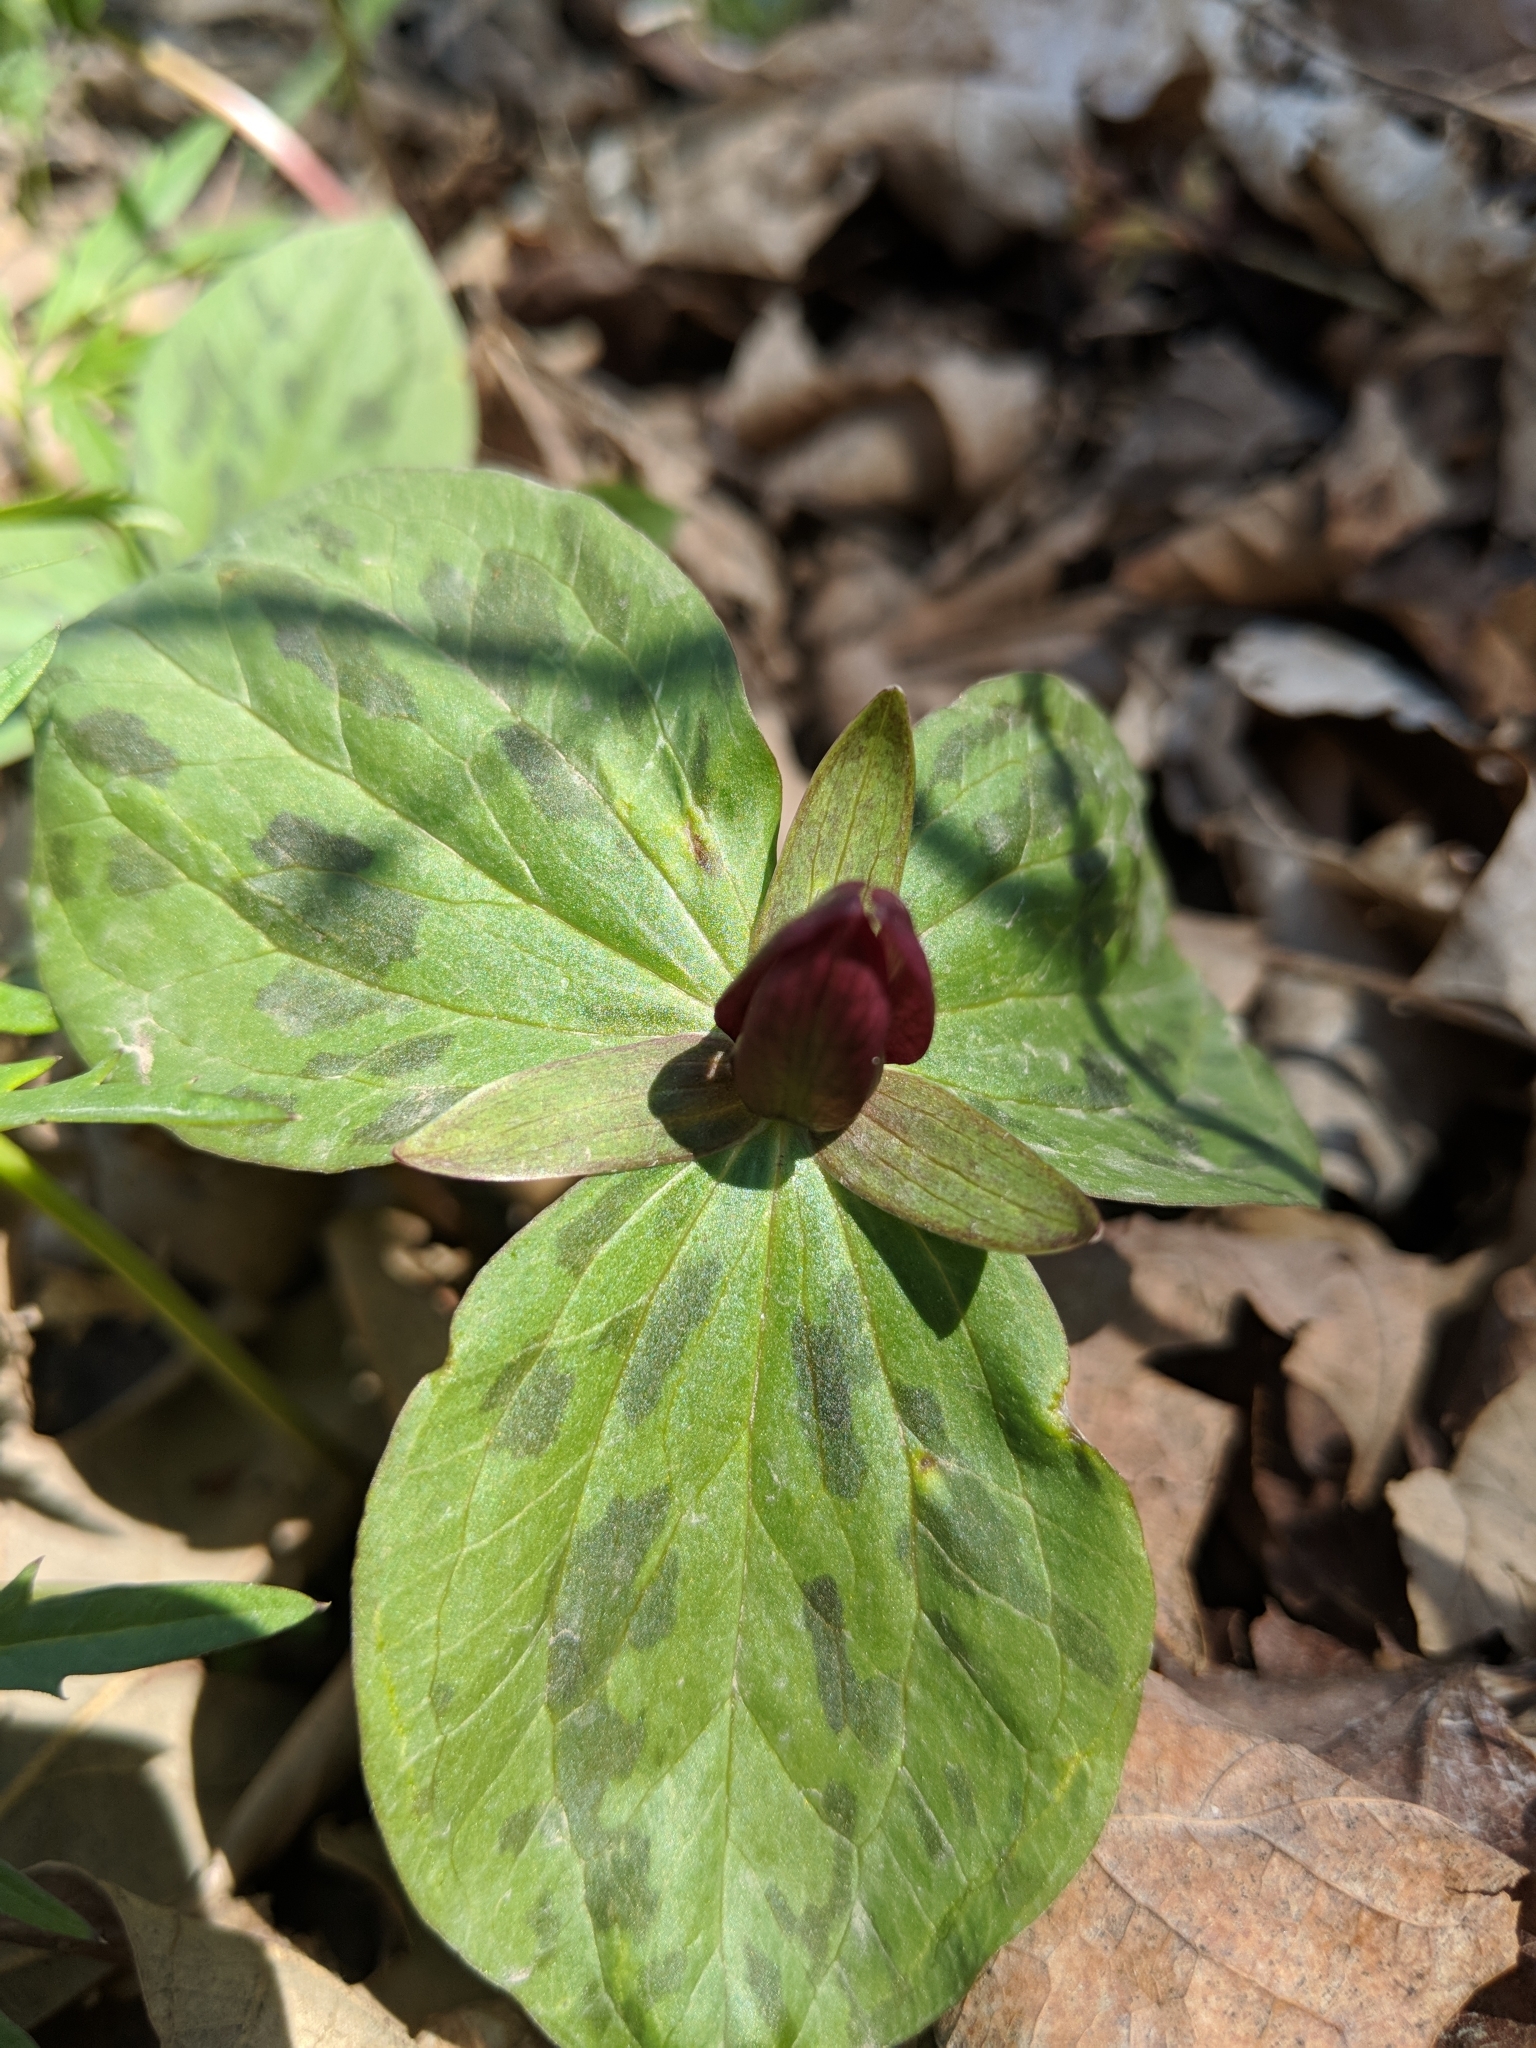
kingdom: Plantae
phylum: Tracheophyta
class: Liliopsida
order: Liliales
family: Melanthiaceae
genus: Trillium
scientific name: Trillium sessile
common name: Sessile trillium
